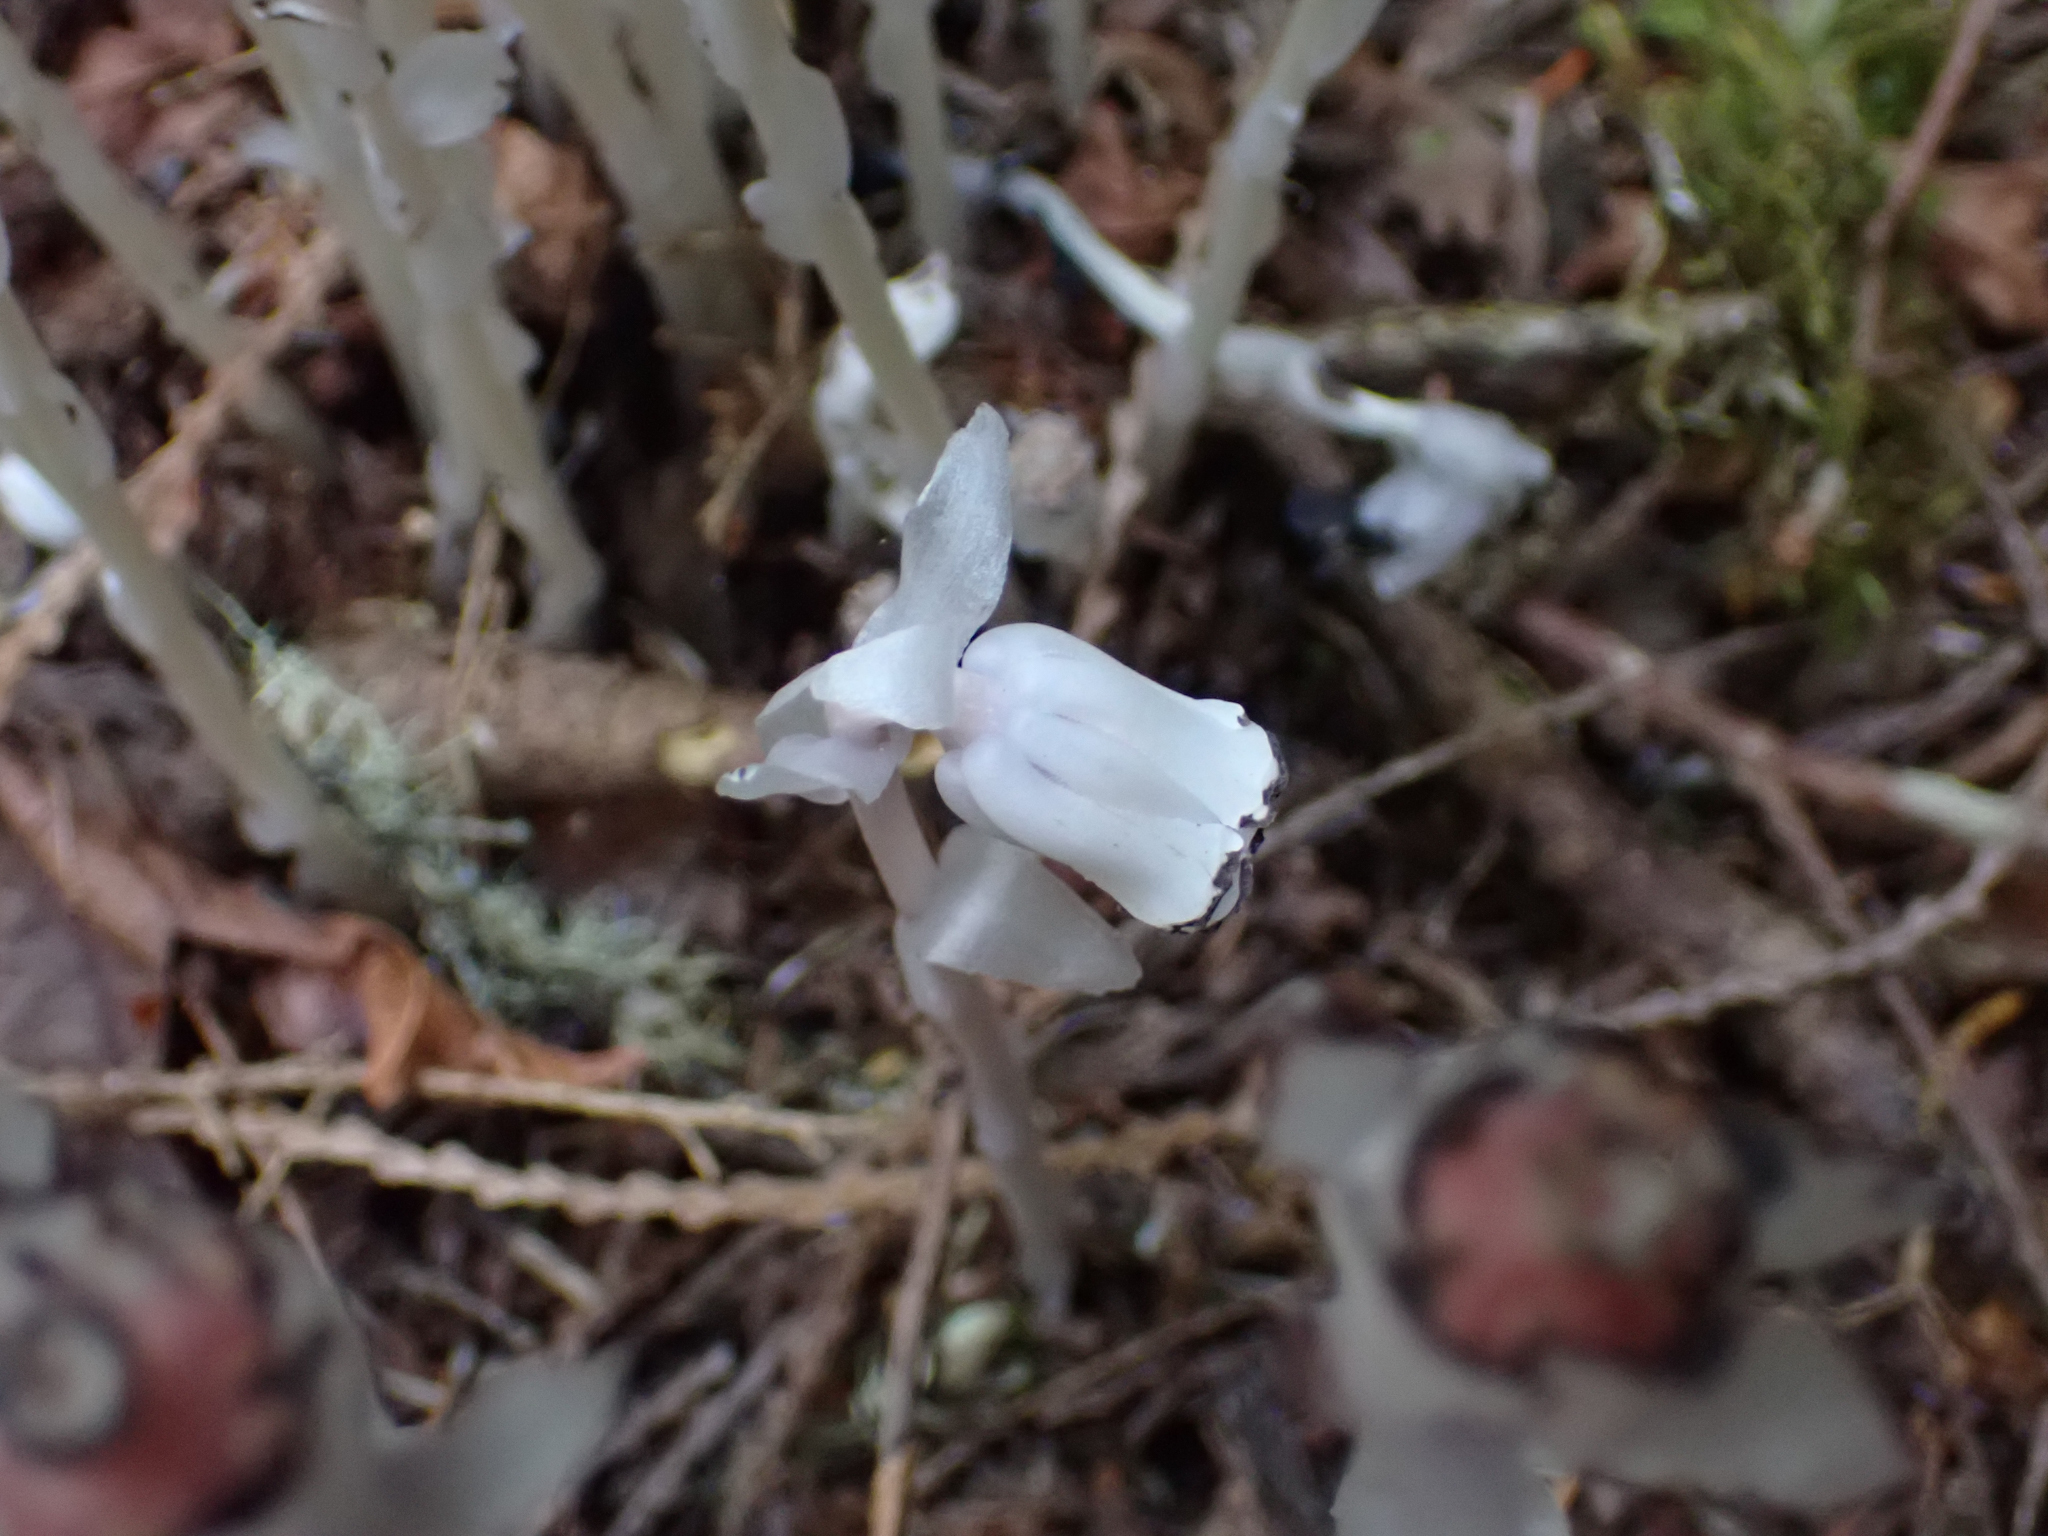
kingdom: Plantae
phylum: Tracheophyta
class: Magnoliopsida
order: Ericales
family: Ericaceae
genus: Monotropa
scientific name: Monotropa uniflora
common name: Convulsion root
